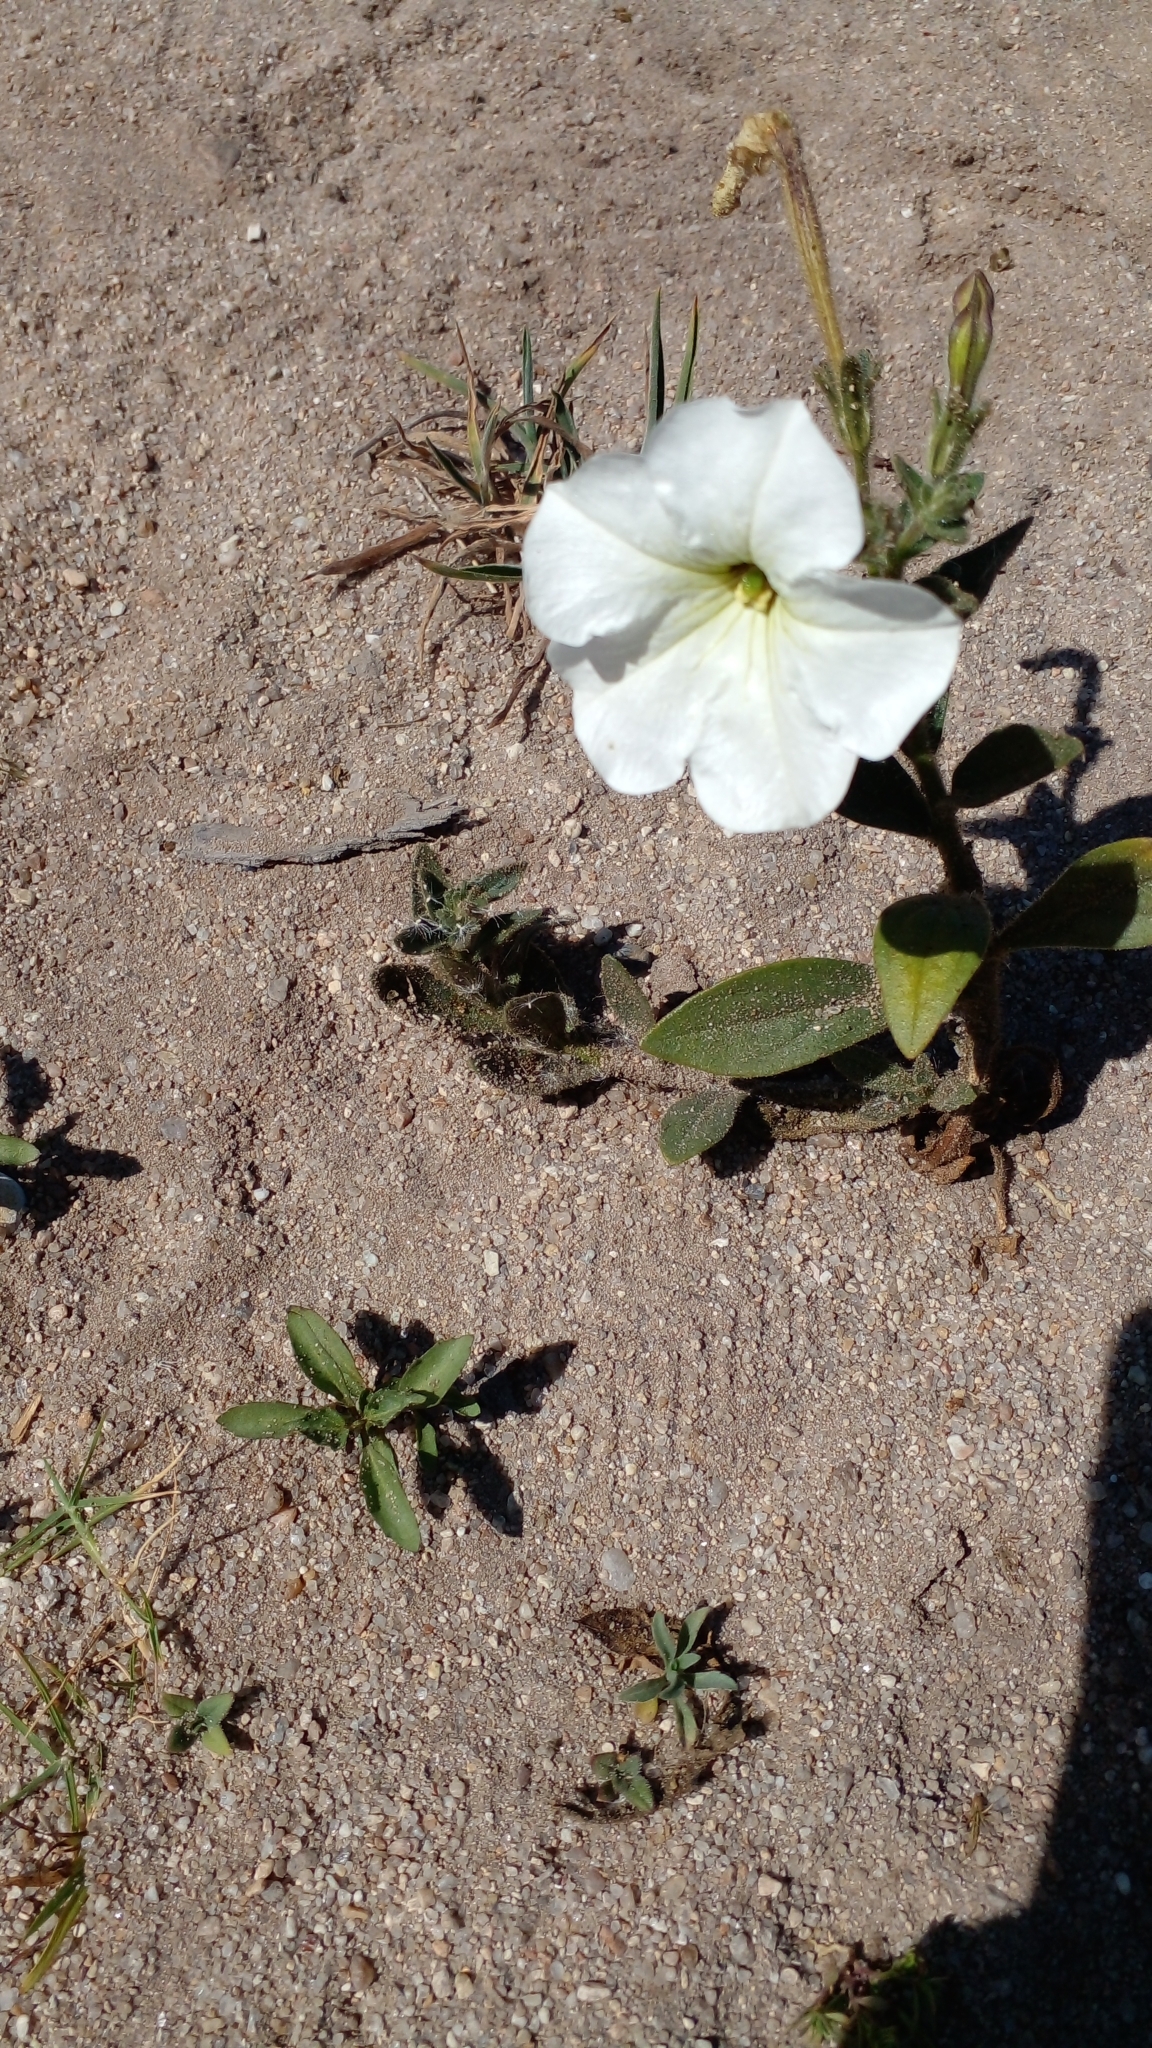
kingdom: Plantae
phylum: Tracheophyta
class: Magnoliopsida
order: Solanales
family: Solanaceae
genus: Petunia
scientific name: Petunia axillaris
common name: Large white petunia
